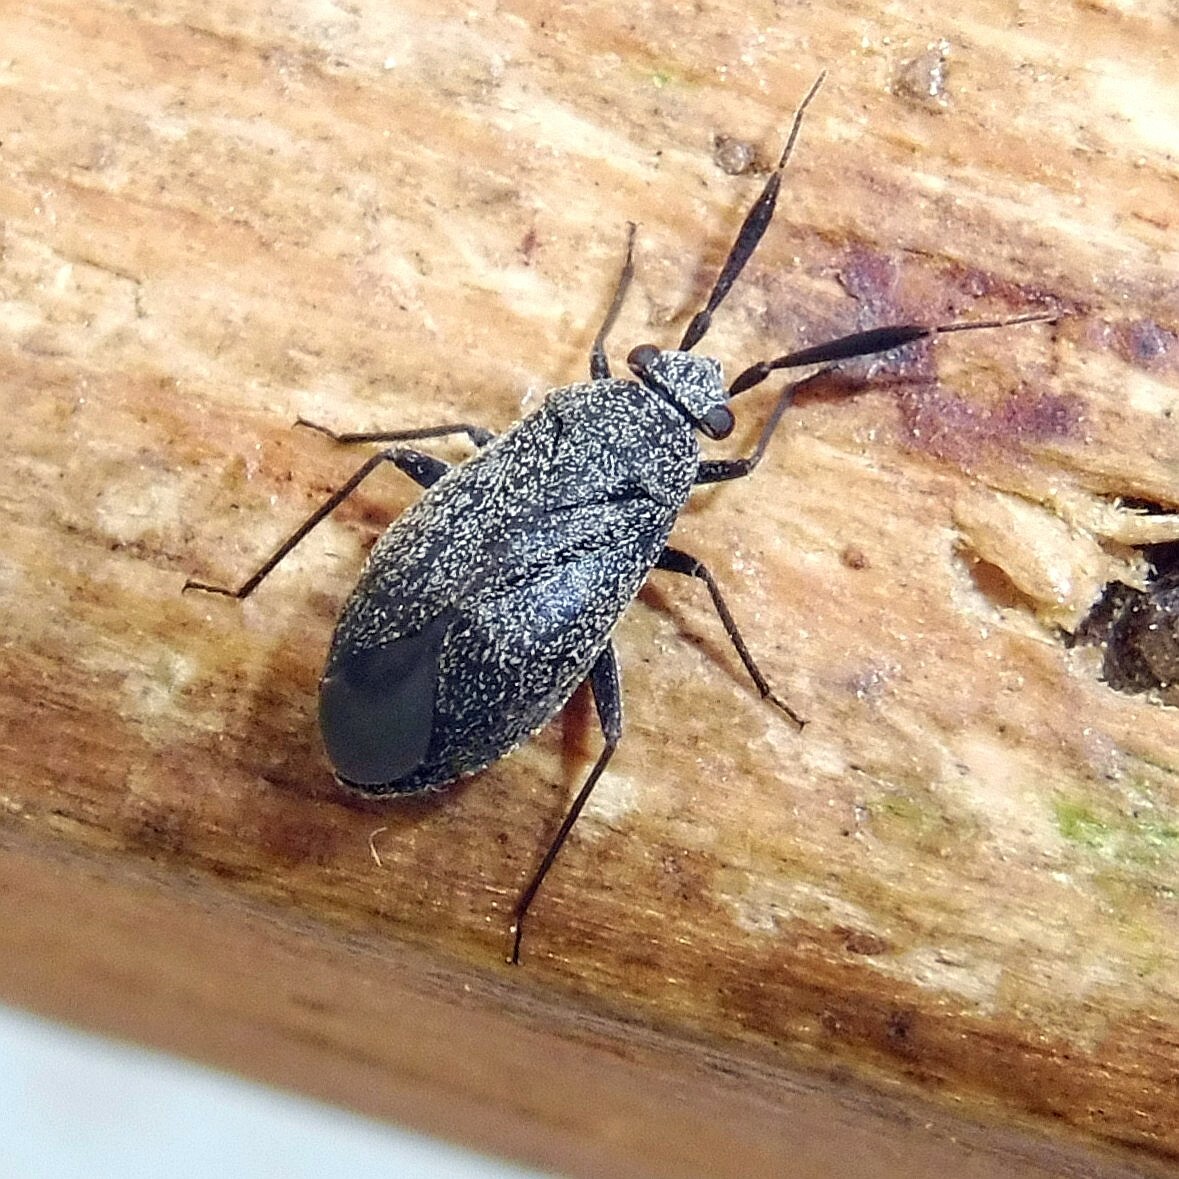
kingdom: Animalia
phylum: Arthropoda
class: Insecta
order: Hemiptera
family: Miridae
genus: Heterocordylus
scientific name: Heterocordylus genistae
